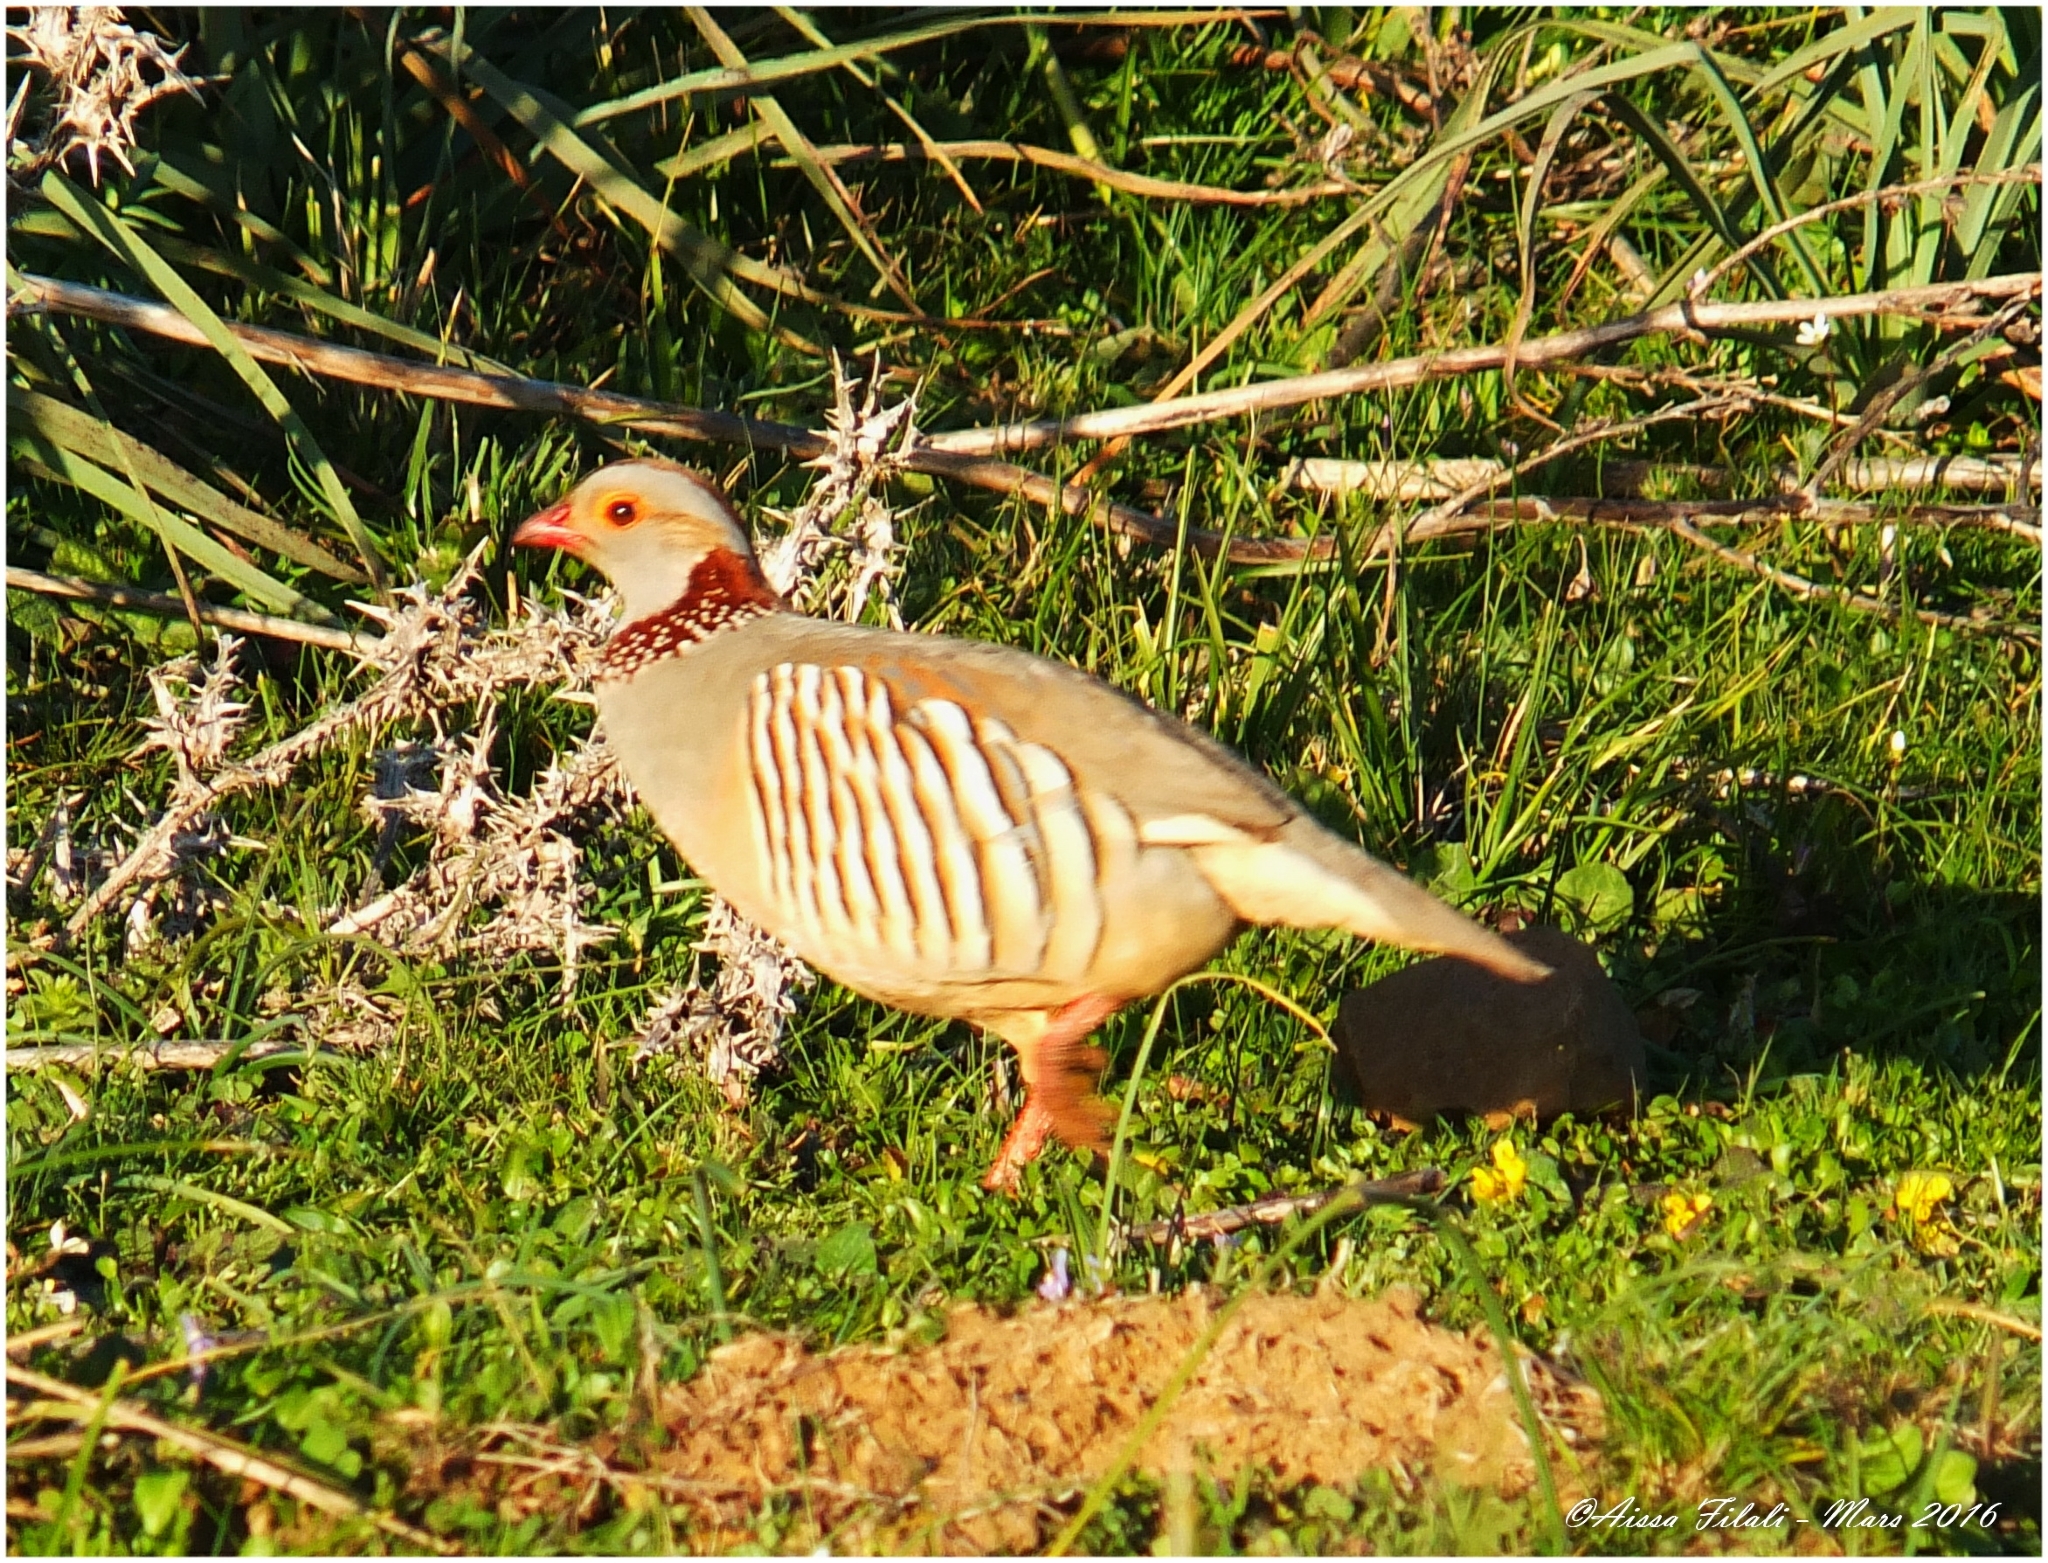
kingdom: Animalia
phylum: Chordata
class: Aves
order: Galliformes
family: Phasianidae
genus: Alectoris
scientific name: Alectoris barbara
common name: Barbary partridge
